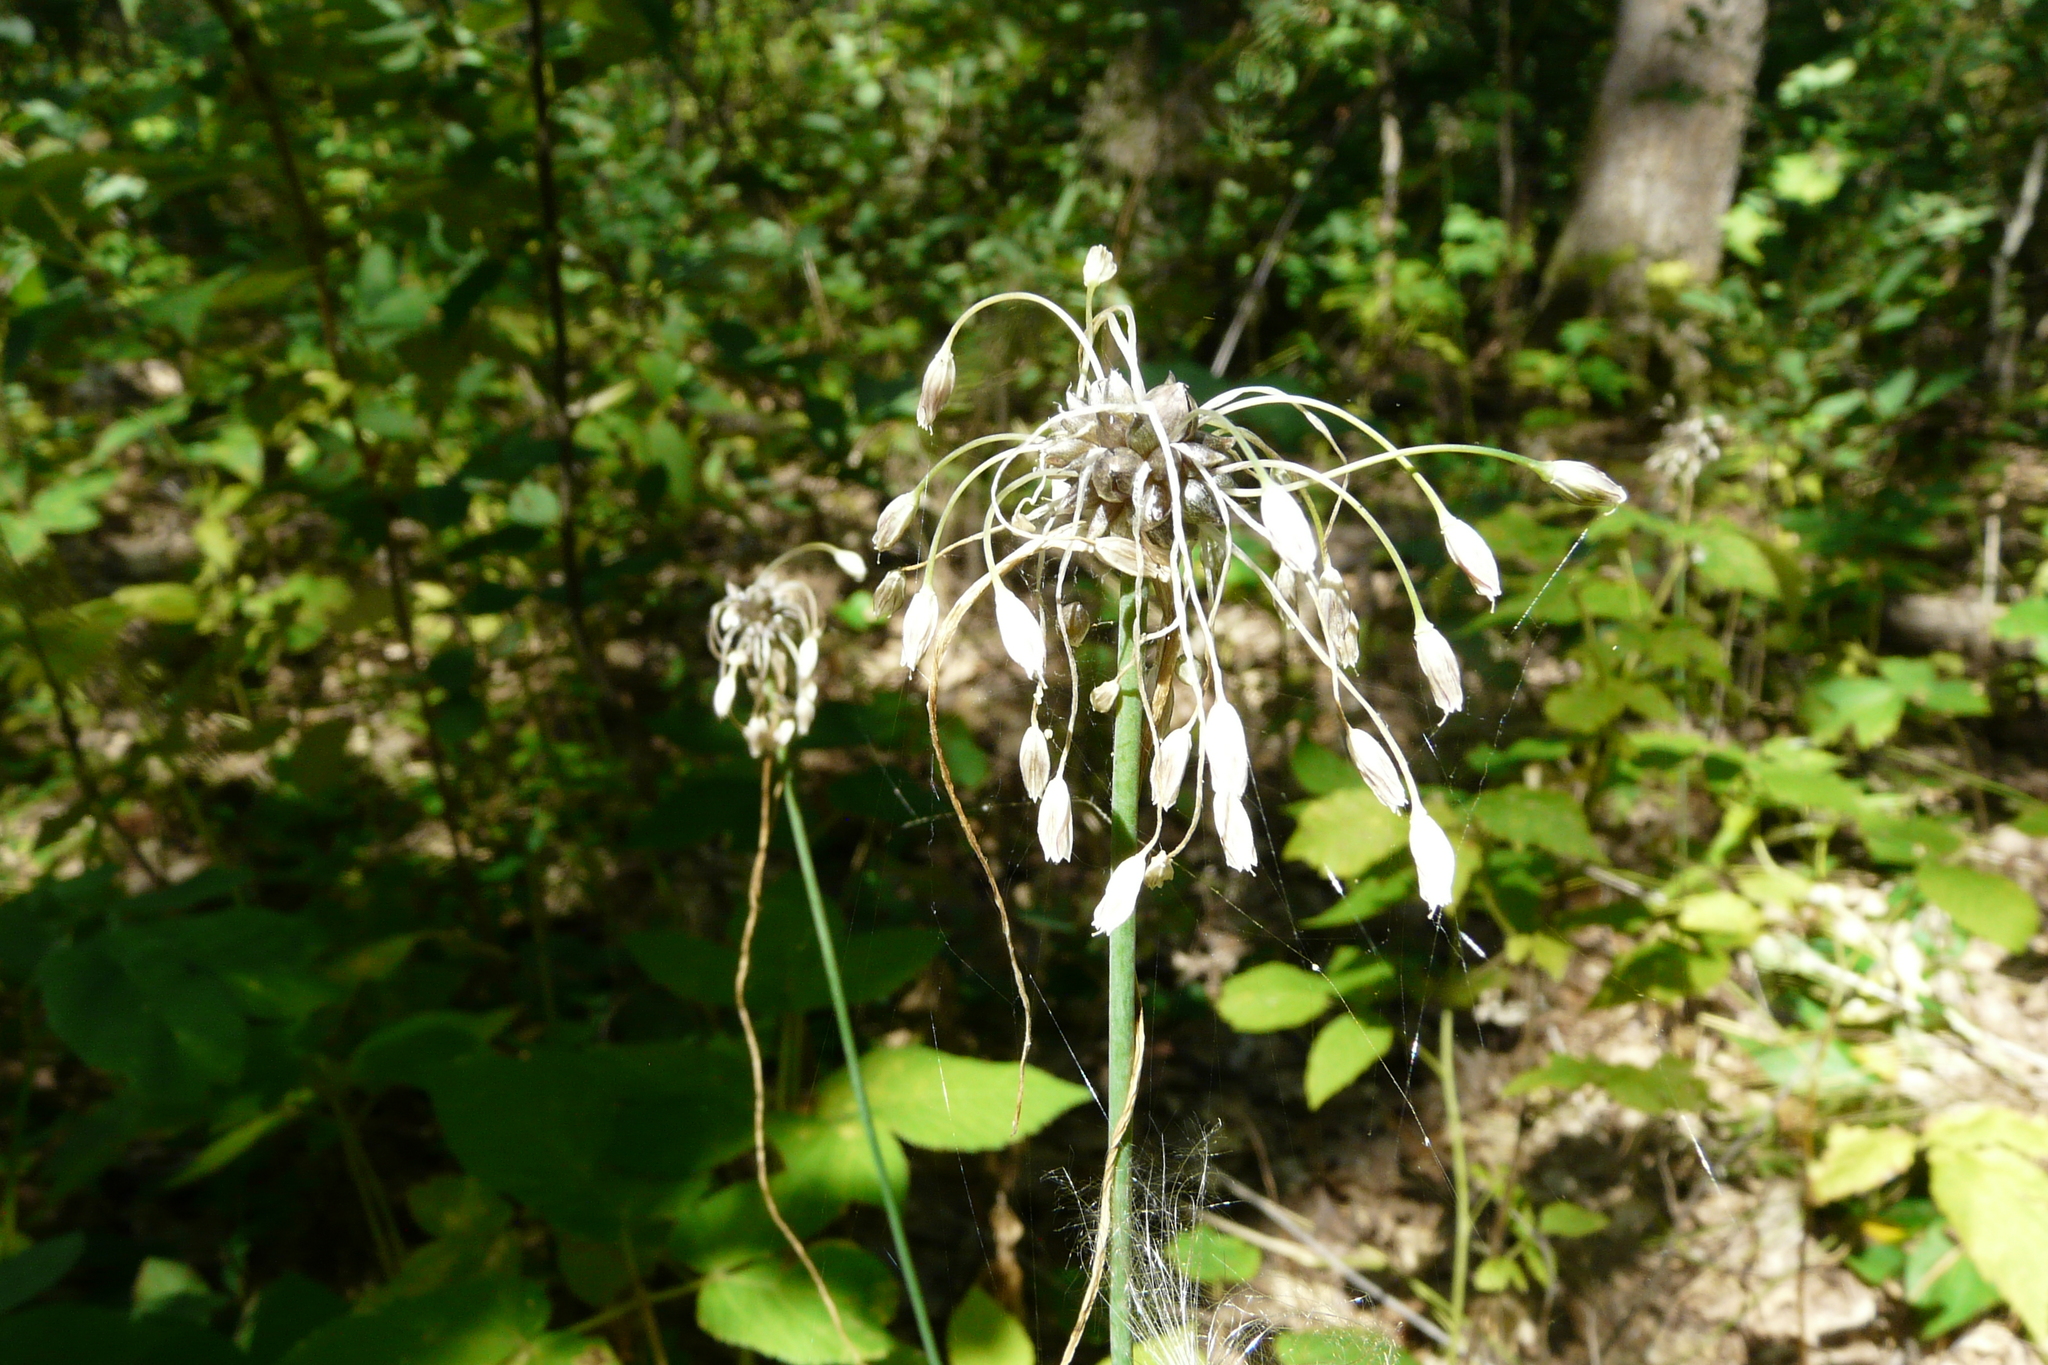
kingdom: Plantae
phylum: Tracheophyta
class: Liliopsida
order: Asparagales
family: Amaryllidaceae
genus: Allium
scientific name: Allium oleraceum
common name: Field garlic
